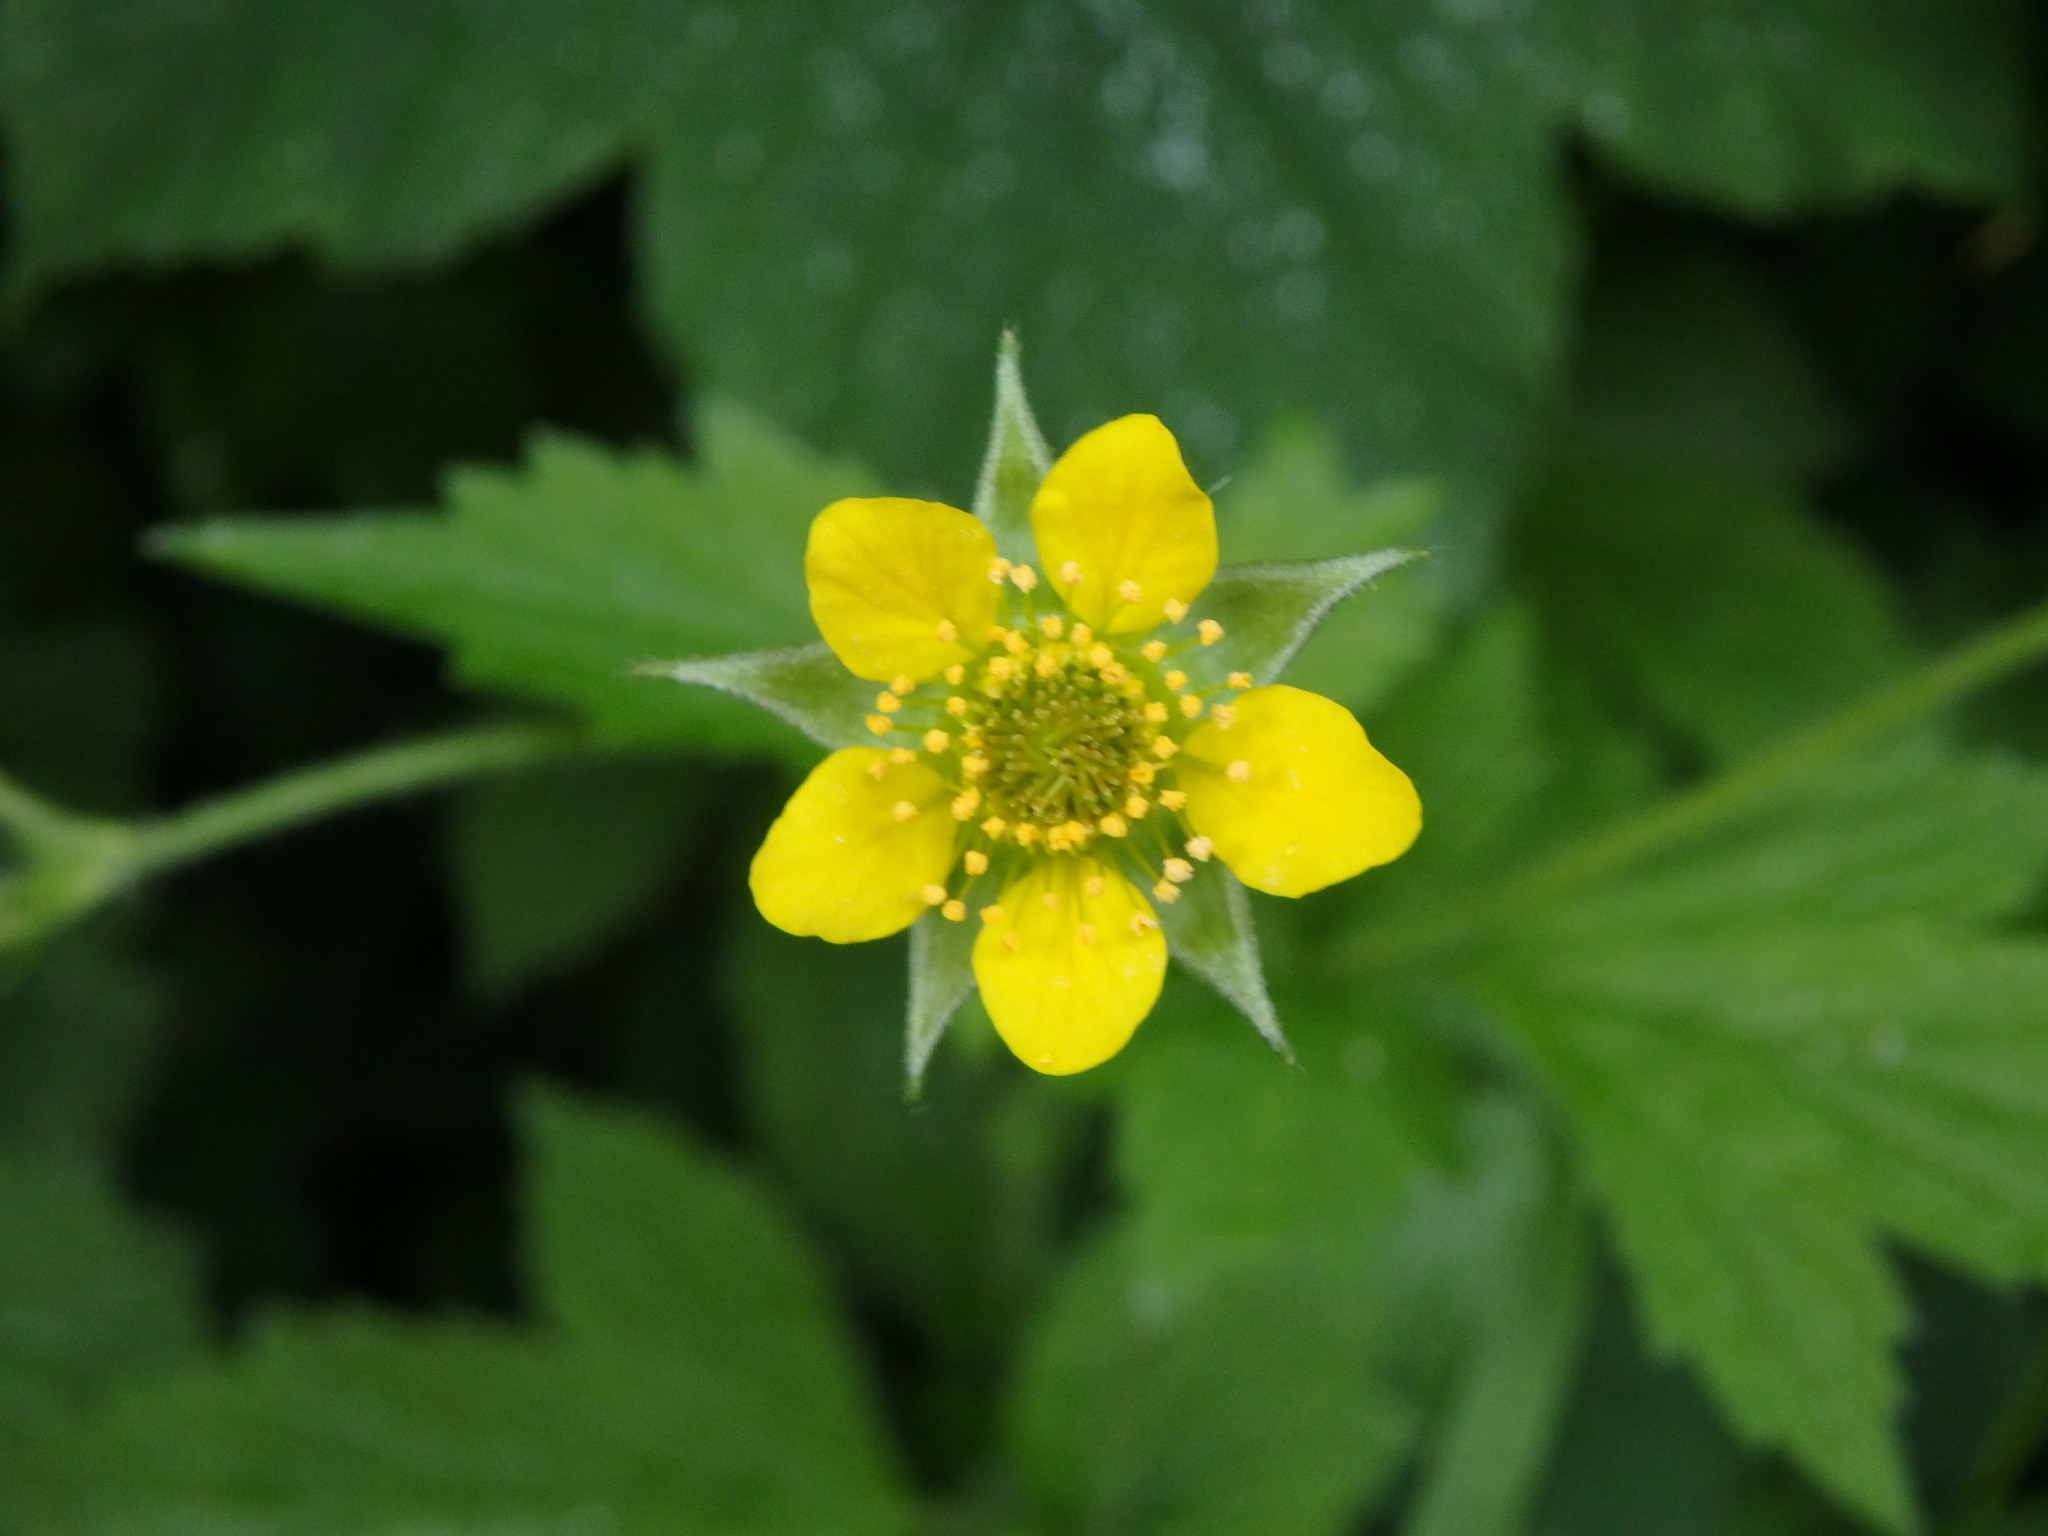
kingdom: Plantae
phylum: Tracheophyta
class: Magnoliopsida
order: Rosales
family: Rosaceae
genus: Geum
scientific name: Geum urbanum
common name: Wood avens
